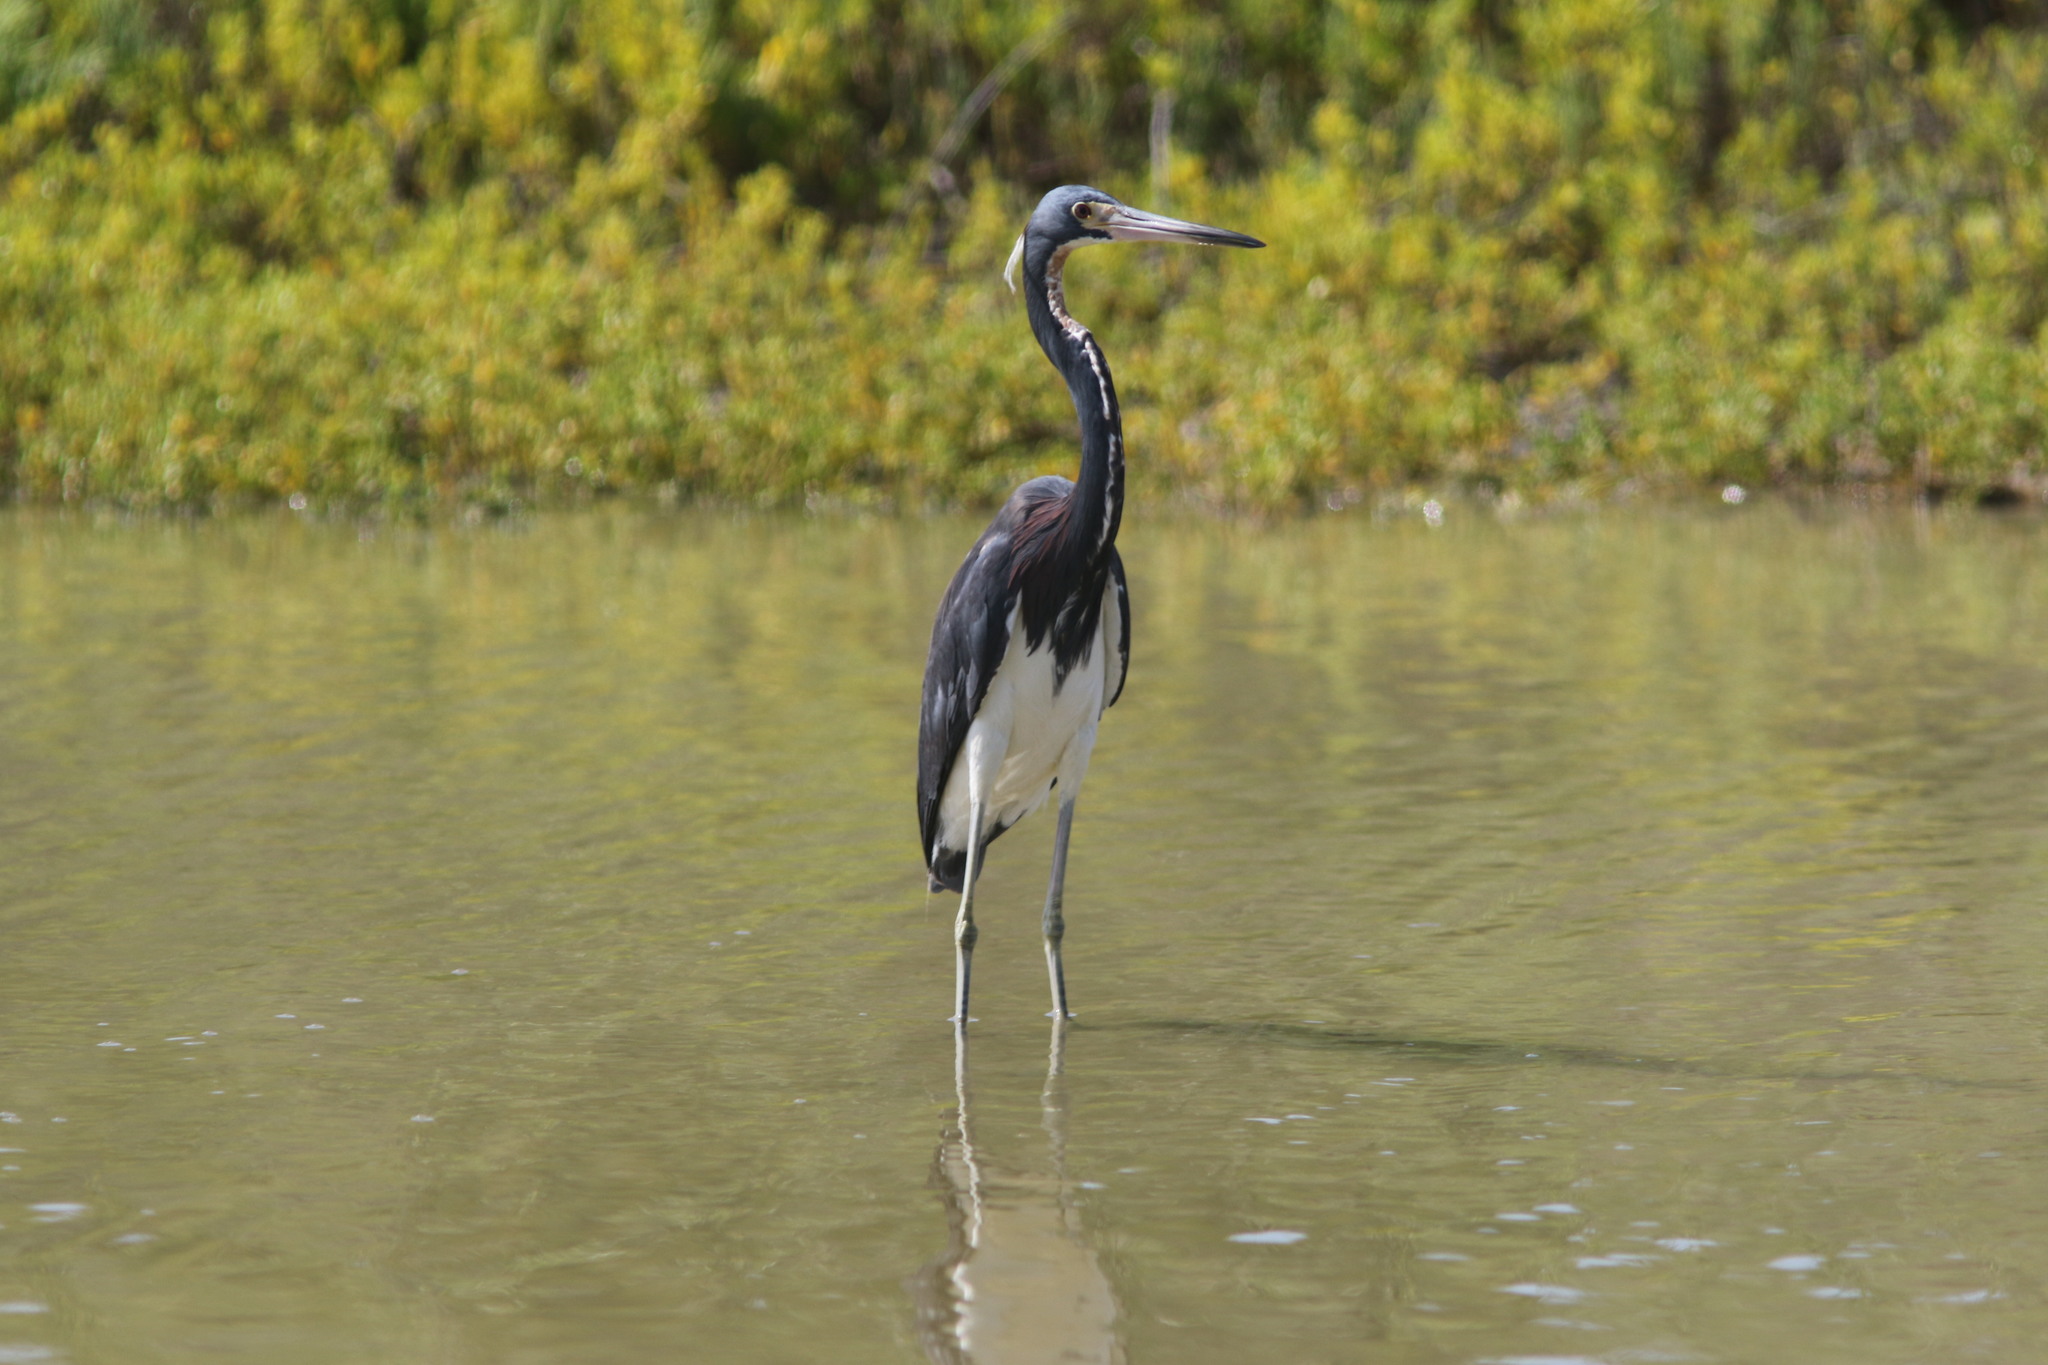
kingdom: Animalia
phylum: Chordata
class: Aves
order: Pelecaniformes
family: Ardeidae
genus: Egretta
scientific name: Egretta tricolor
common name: Tricolored heron
